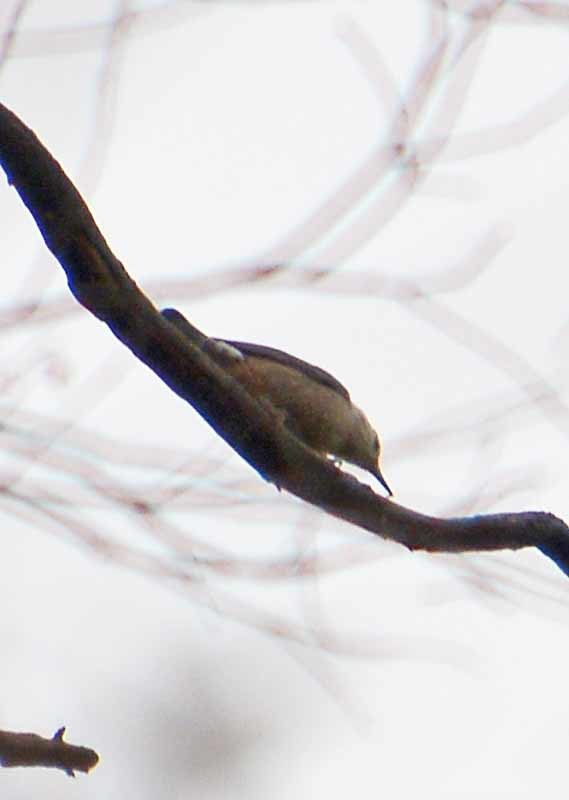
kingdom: Animalia
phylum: Chordata
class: Aves
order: Passeriformes
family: Sittidae
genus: Sitta
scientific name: Sitta carolinensis
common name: White-breasted nuthatch
